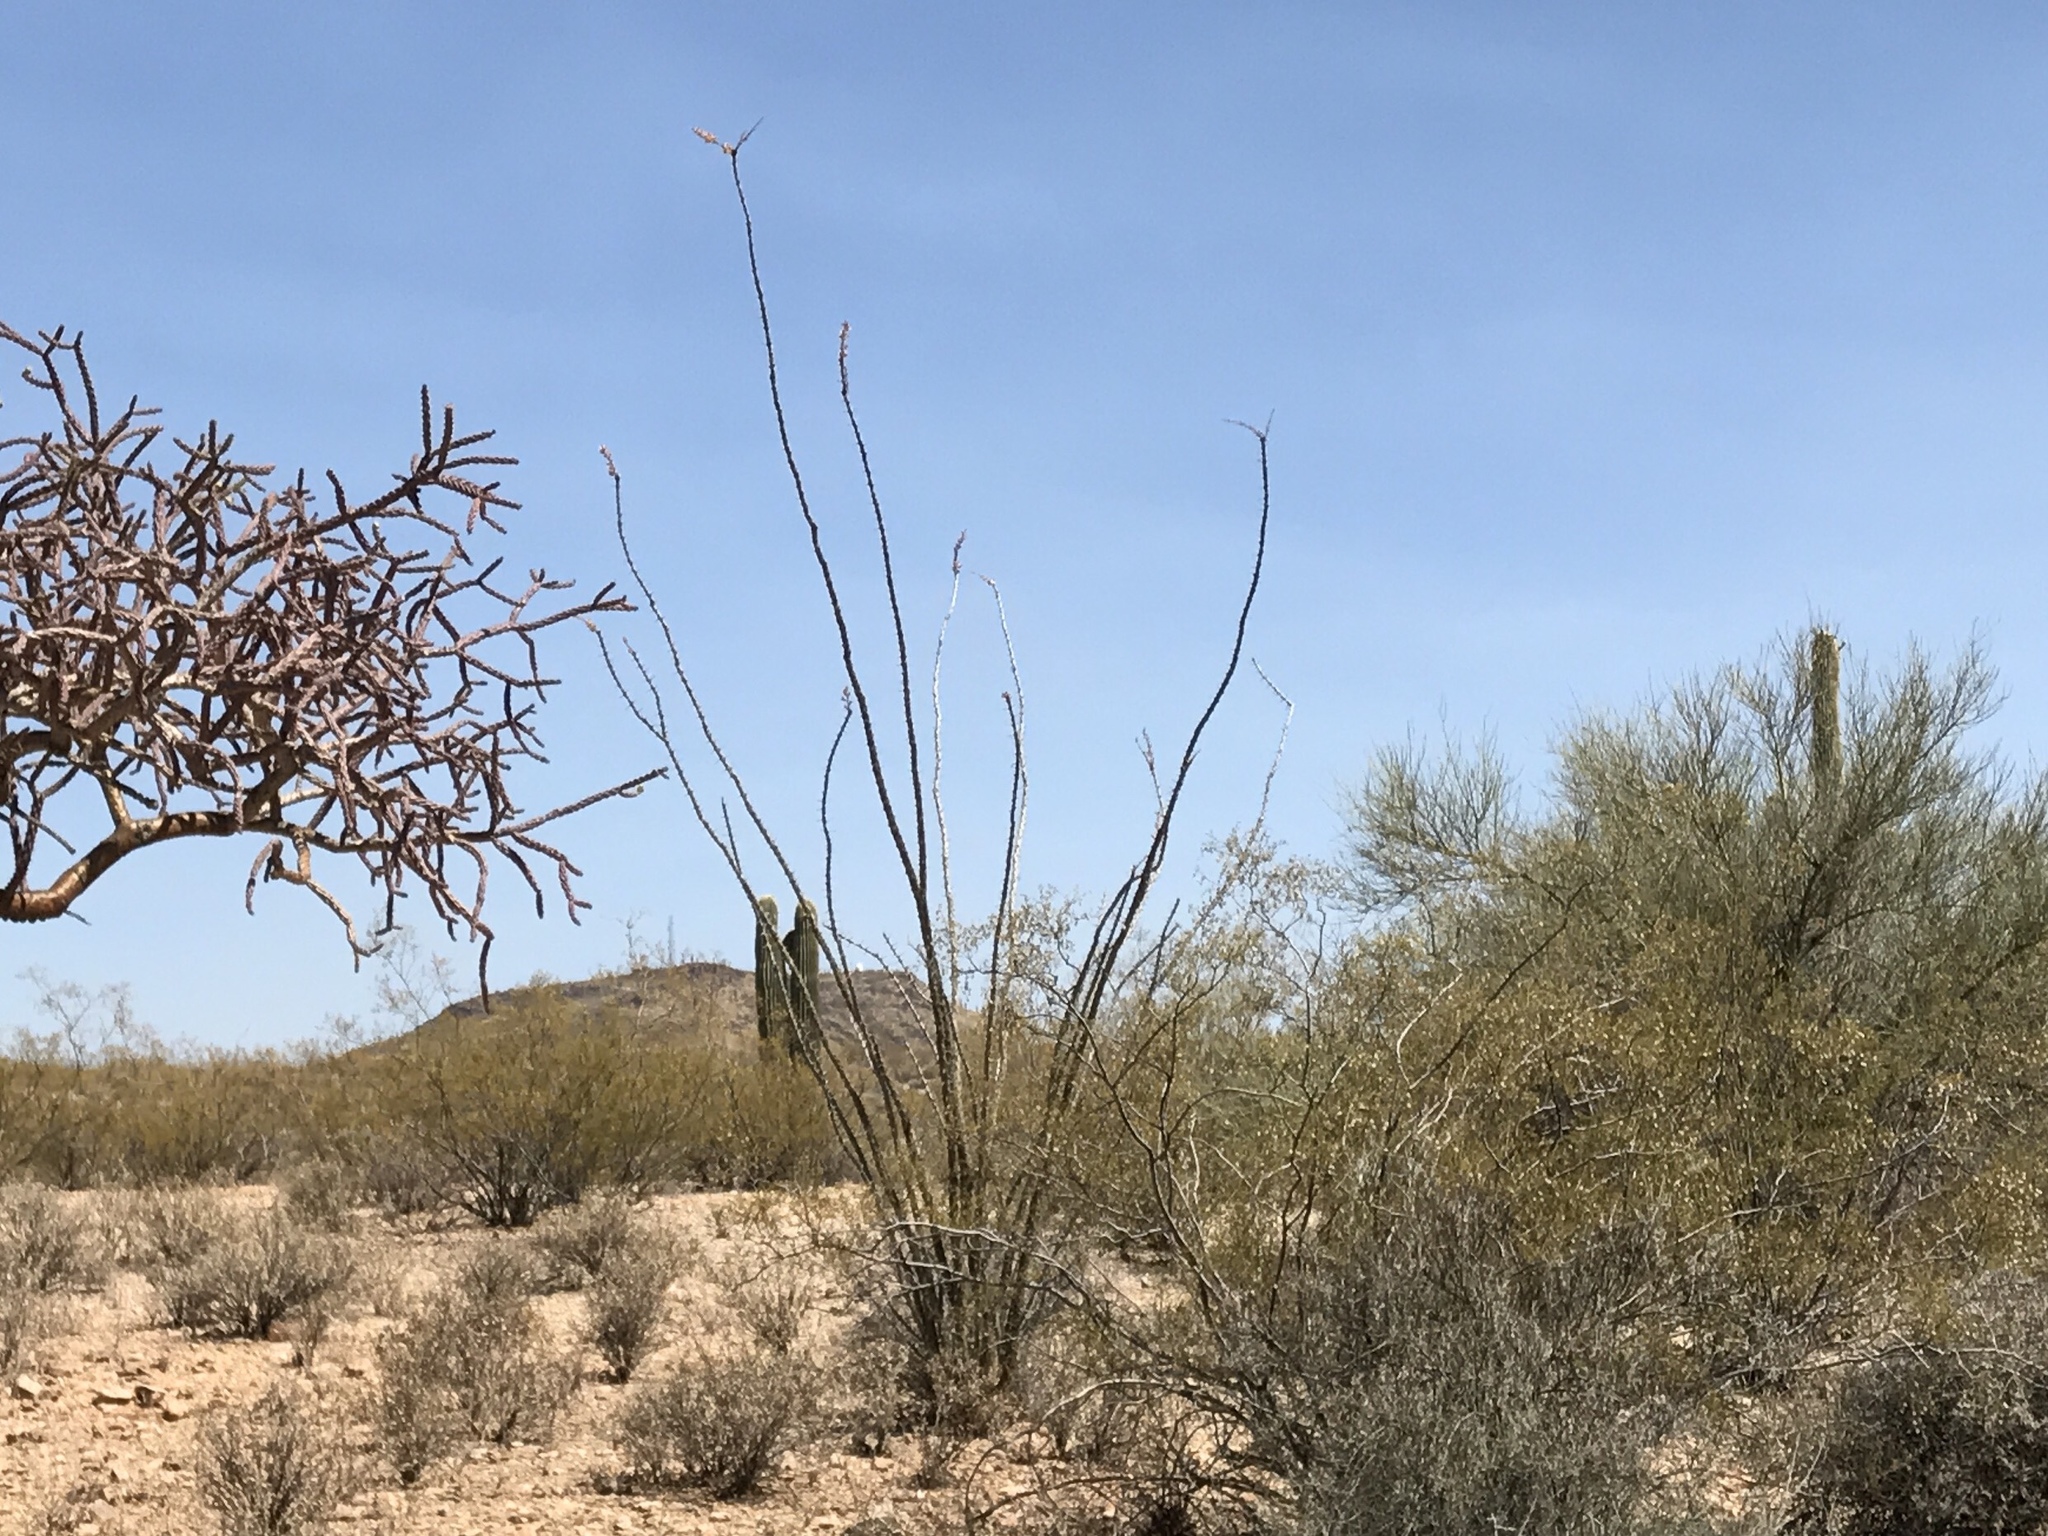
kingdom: Plantae
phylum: Tracheophyta
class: Magnoliopsida
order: Ericales
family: Fouquieriaceae
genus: Fouquieria
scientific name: Fouquieria splendens
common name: Vine-cactus
